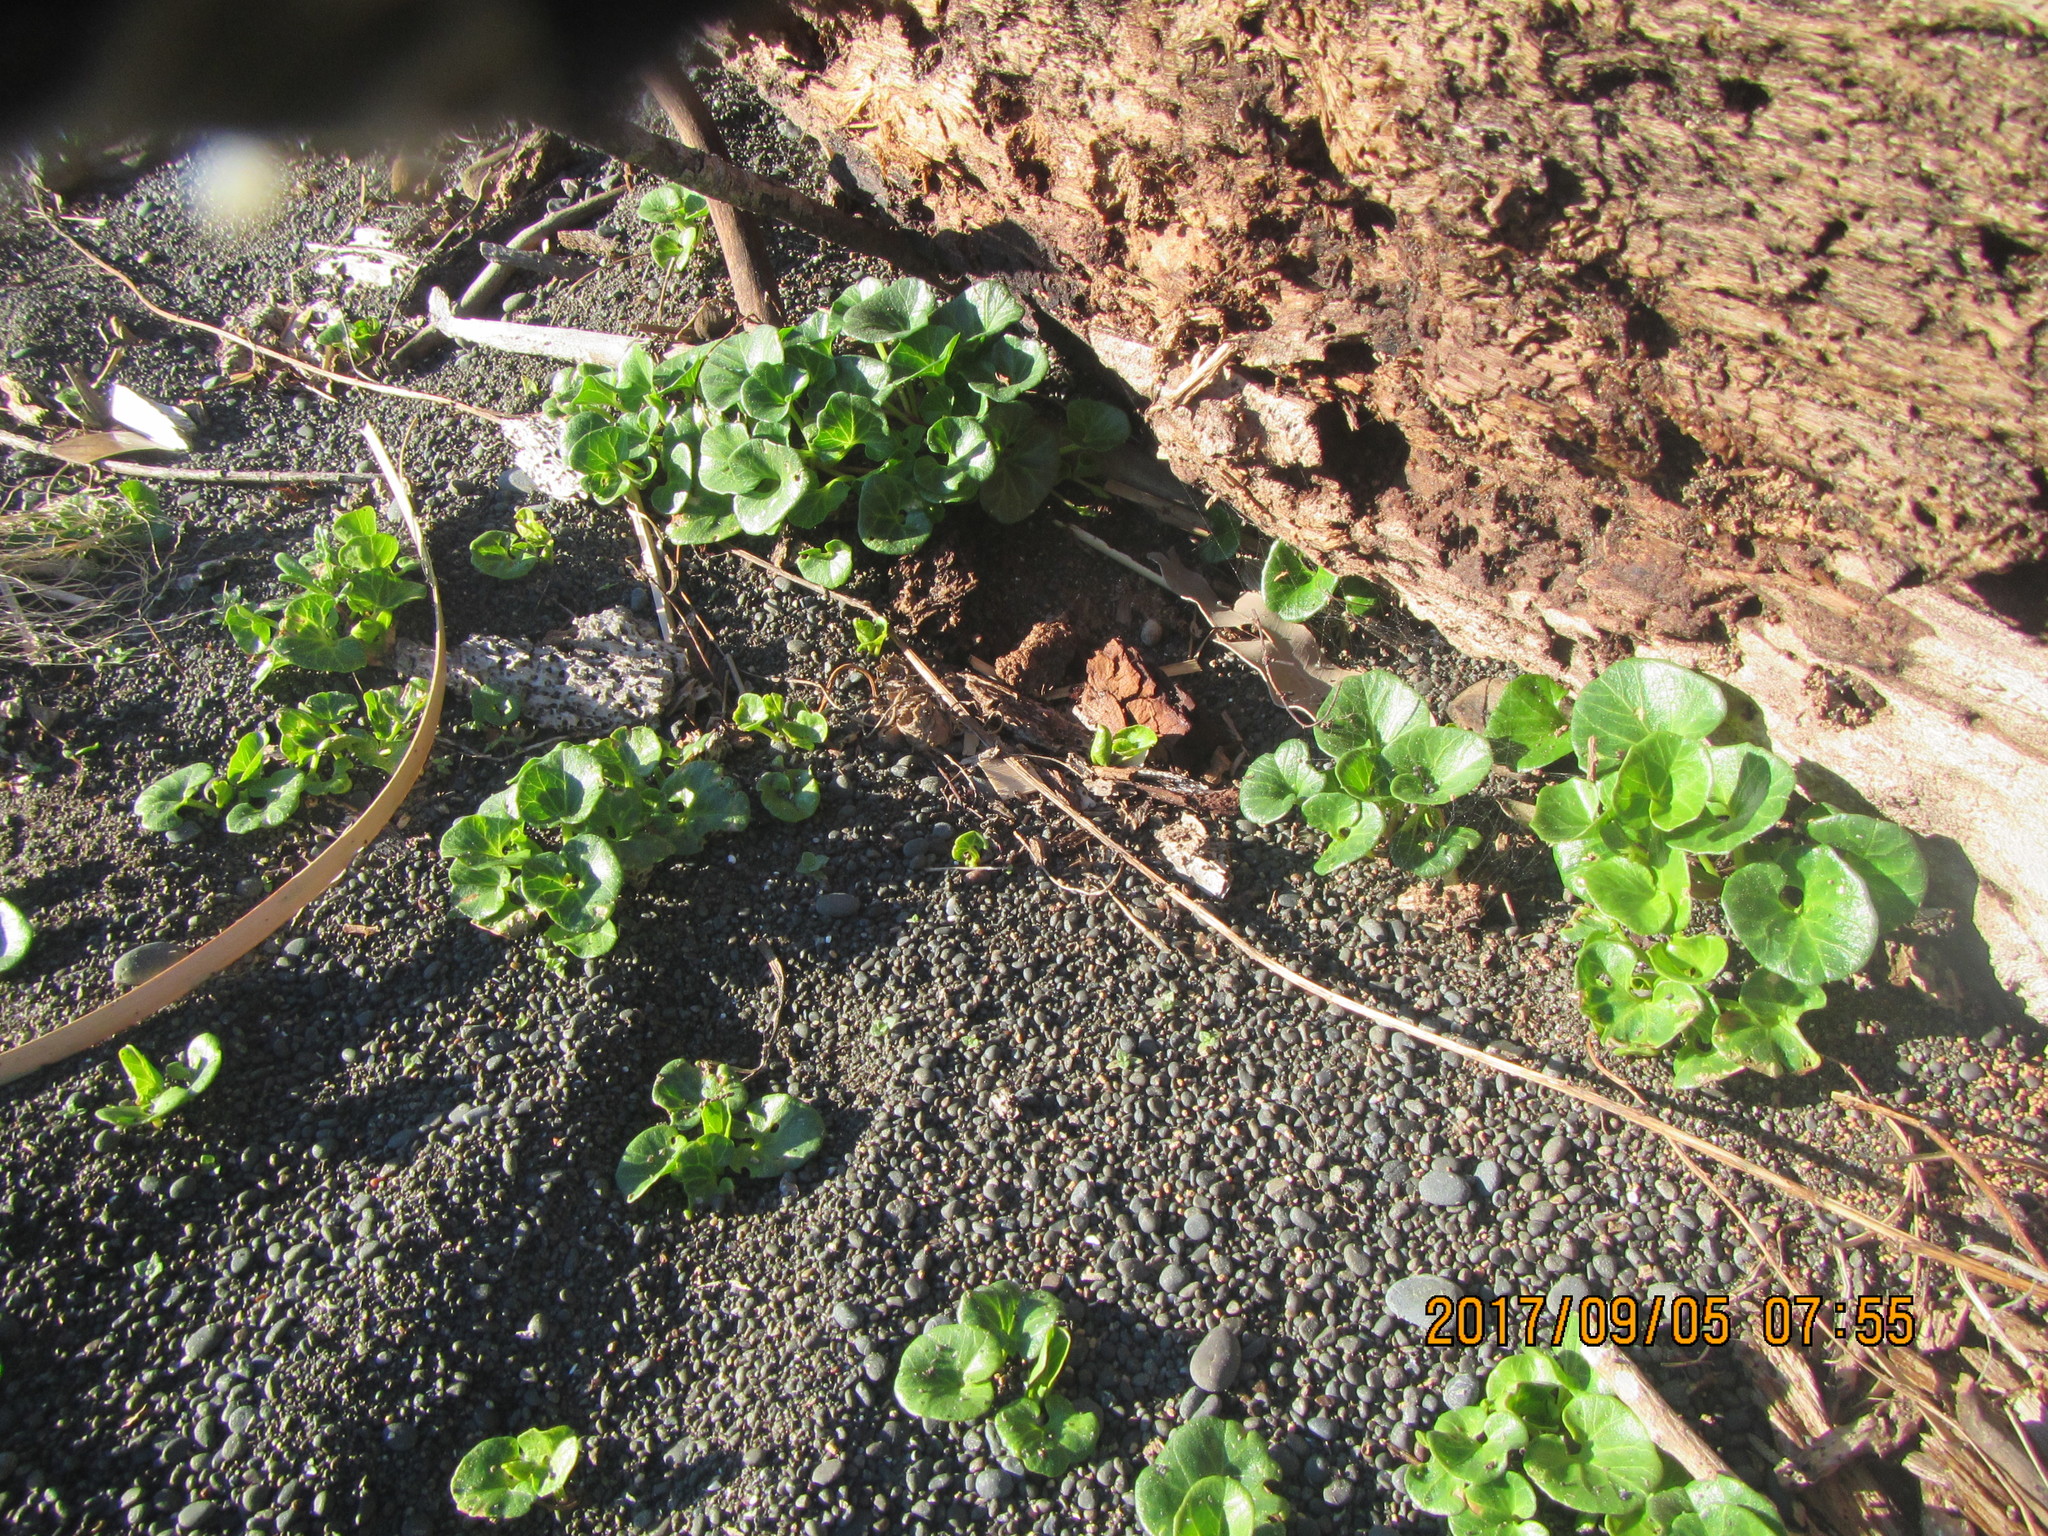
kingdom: Plantae
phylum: Tracheophyta
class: Magnoliopsida
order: Solanales
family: Convolvulaceae
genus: Calystegia
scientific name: Calystegia soldanella
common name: Sea bindweed
